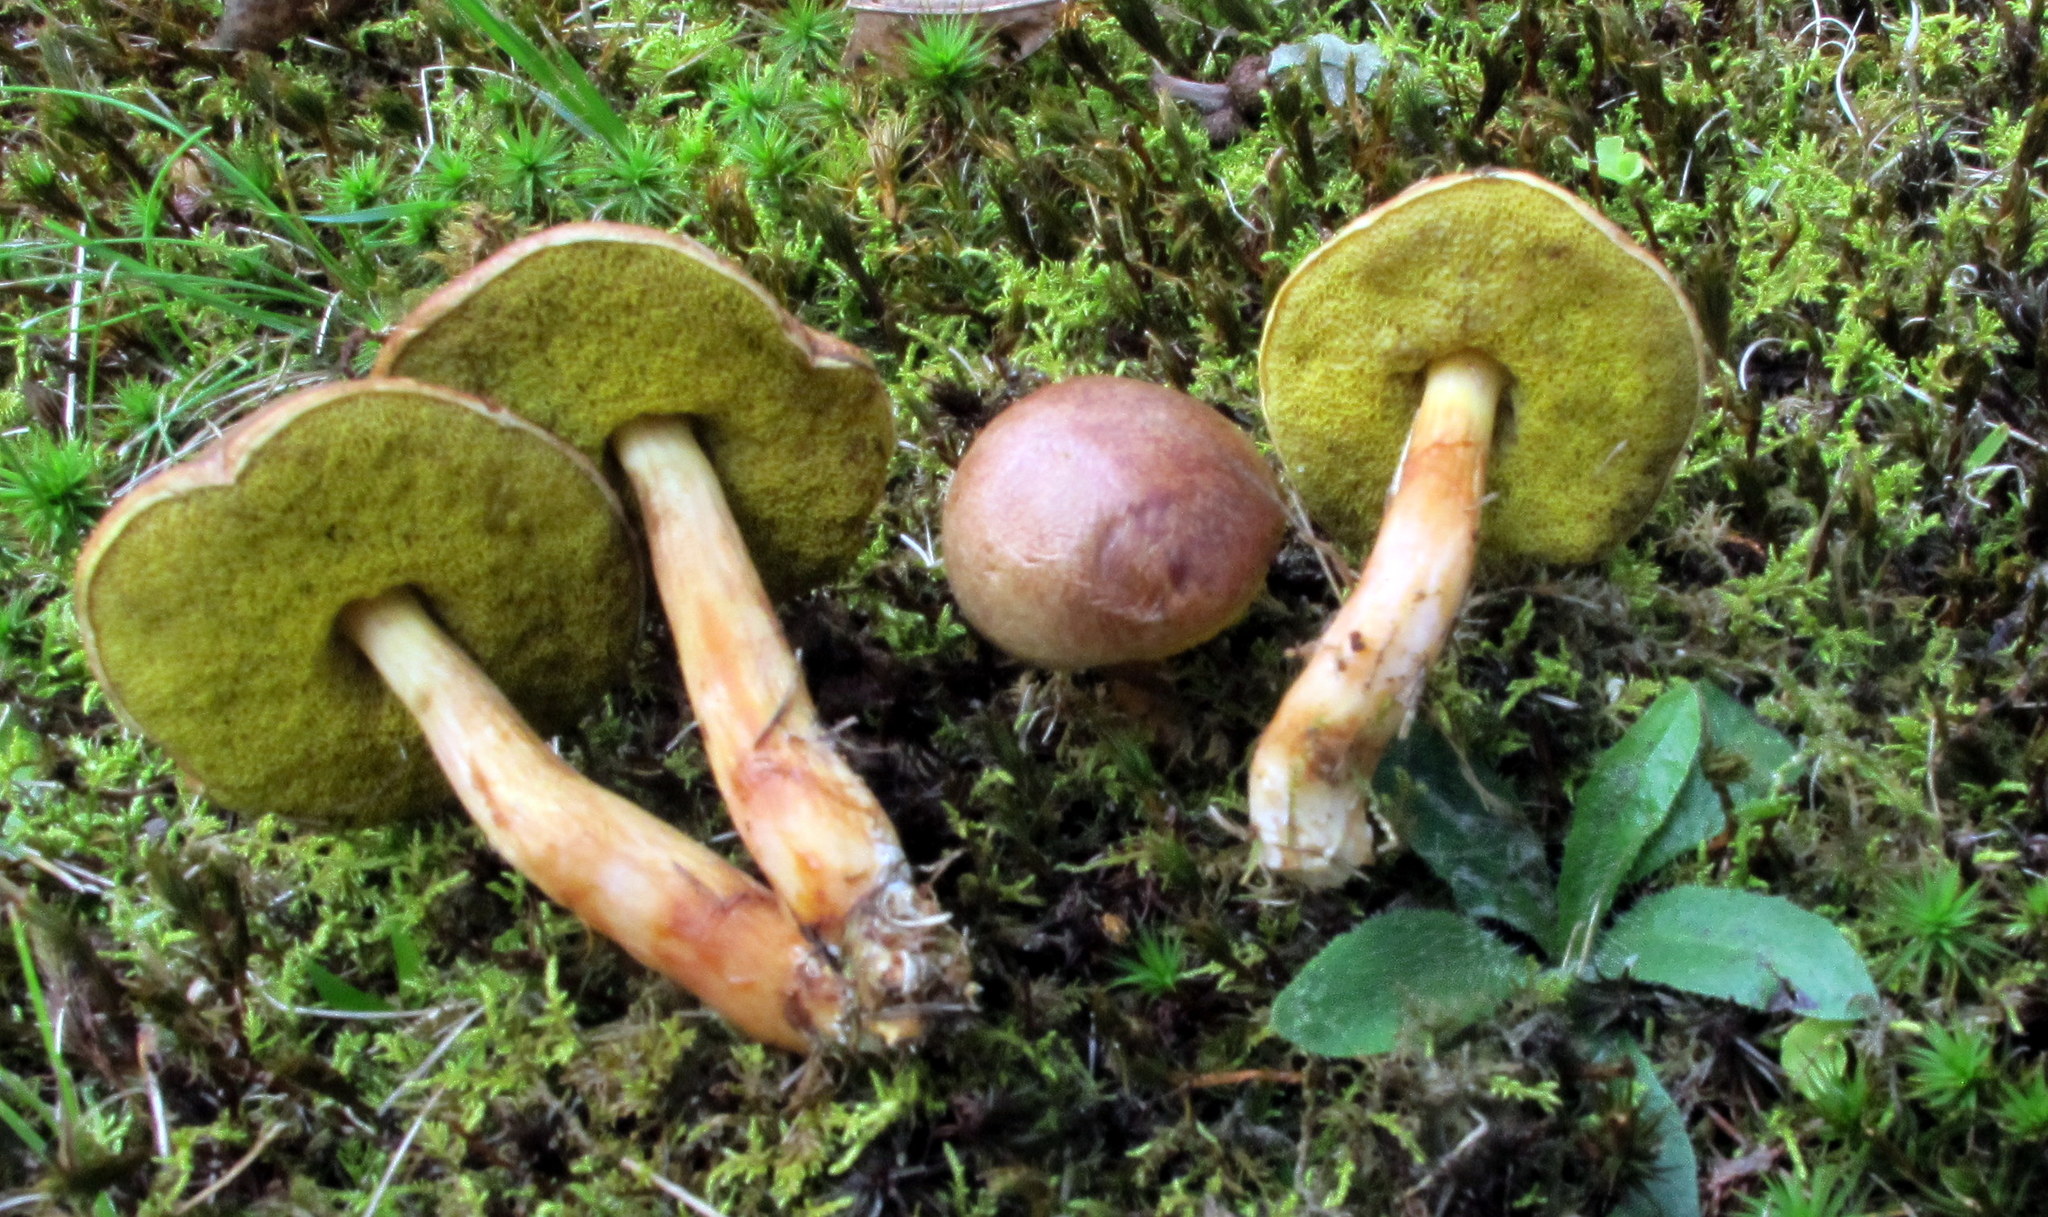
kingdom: Fungi
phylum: Basidiomycota
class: Agaricomycetes
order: Boletales
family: Boletaceae
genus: Aureoboletus
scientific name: Aureoboletus auriporus
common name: Sour gold-pored bolete
